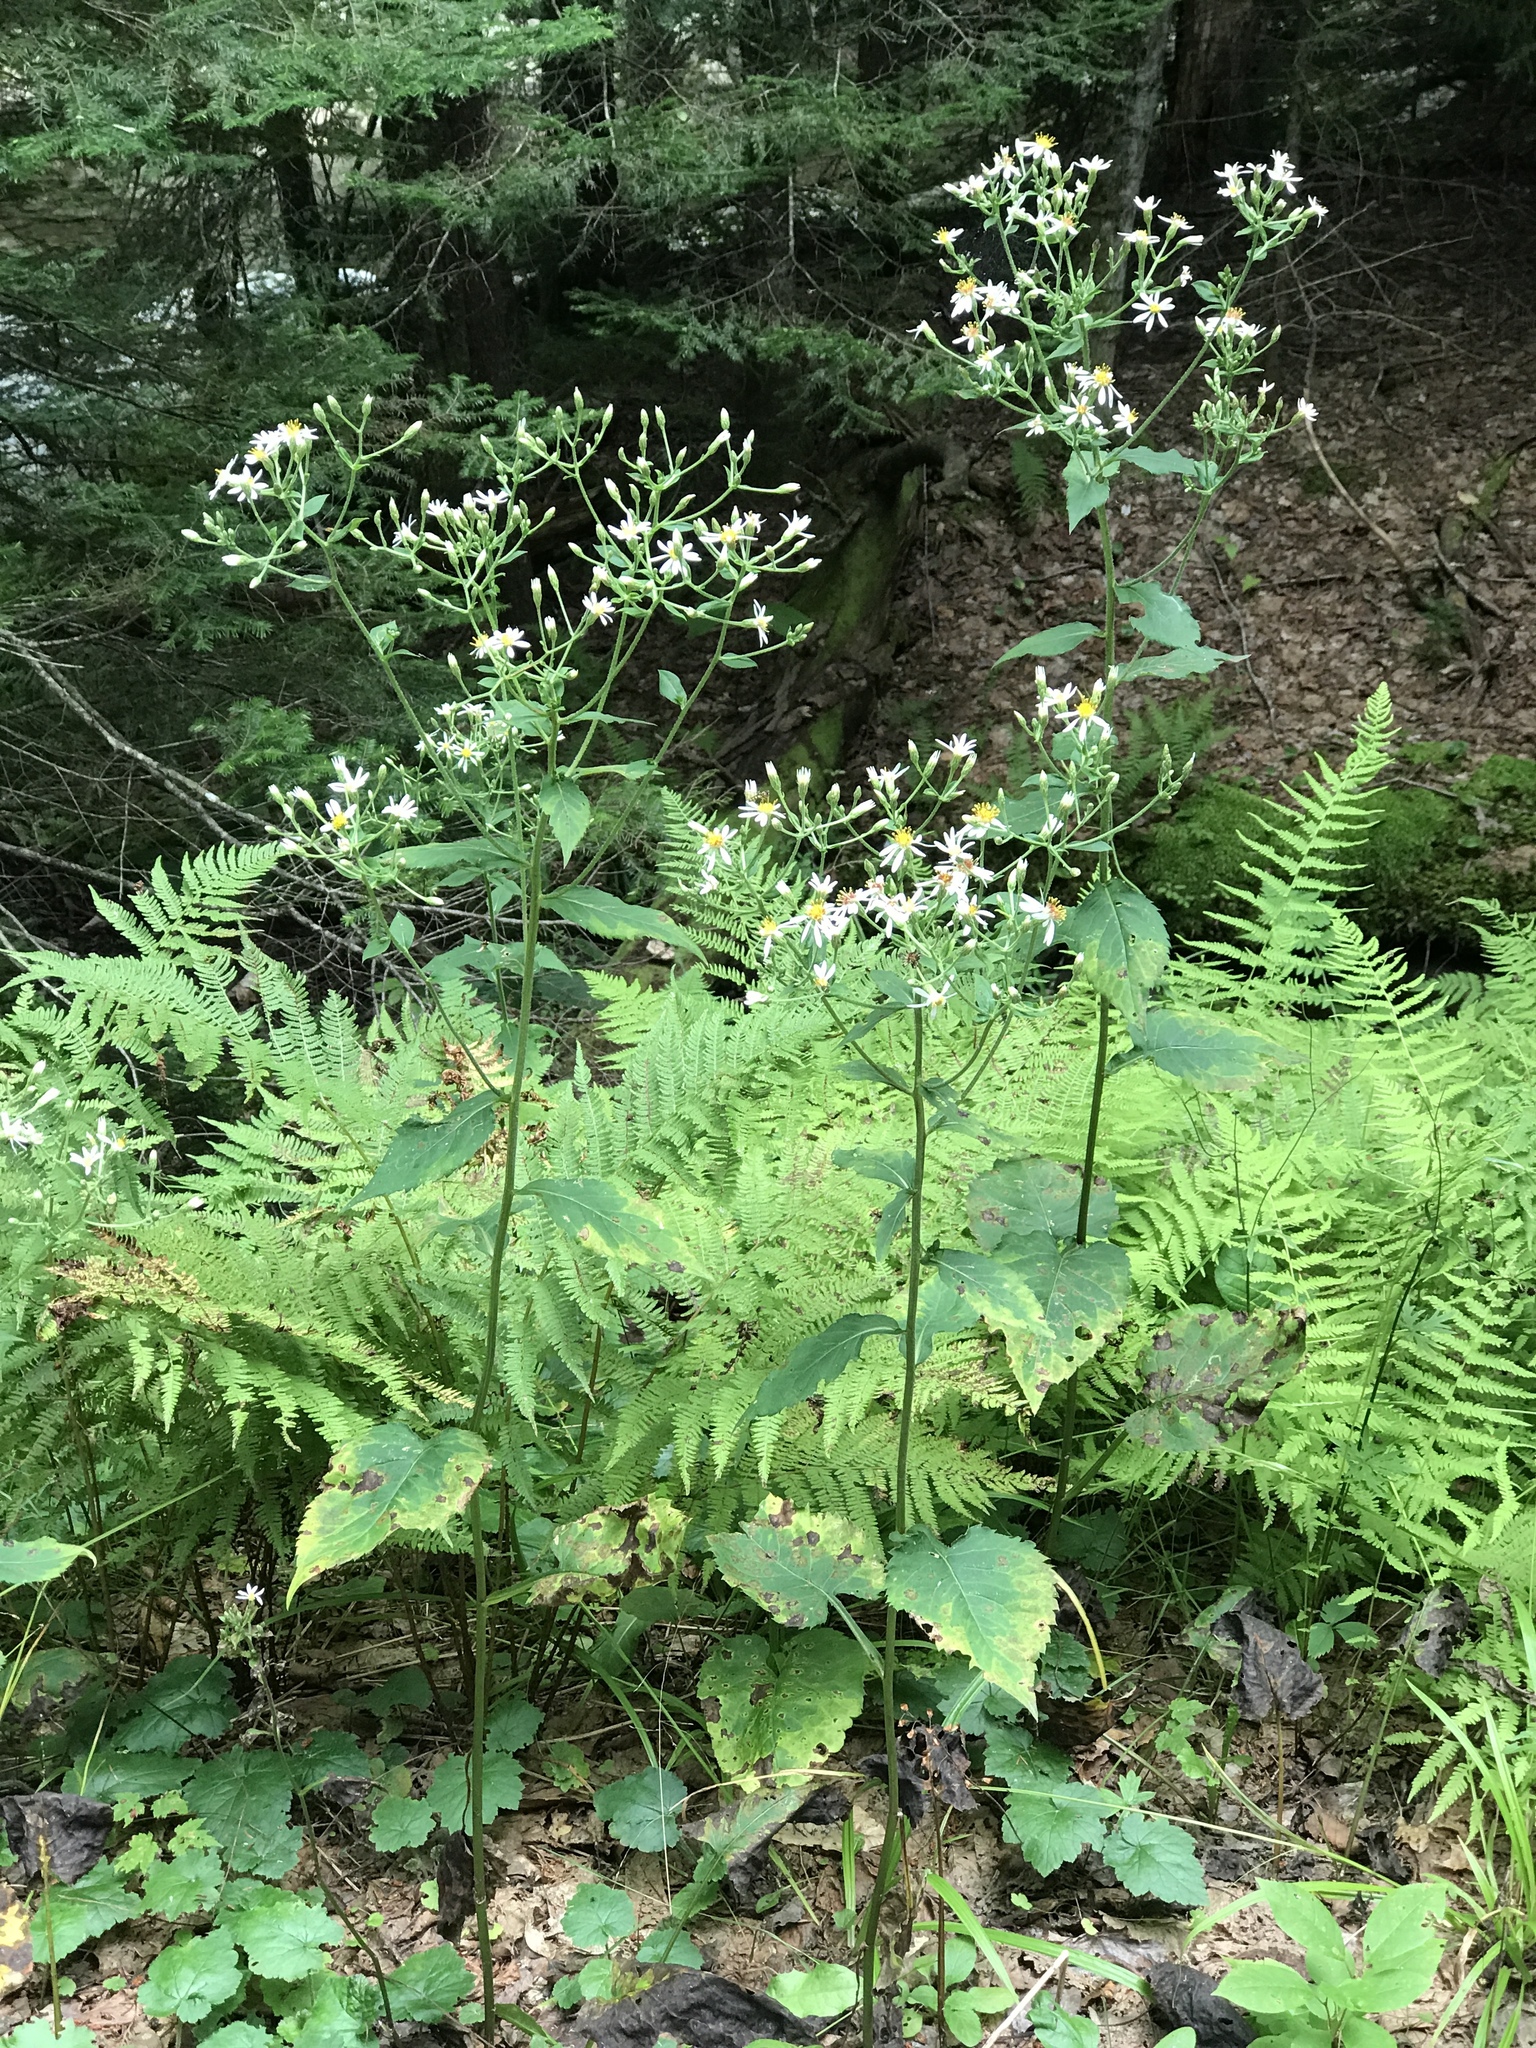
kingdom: Plantae
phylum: Tracheophyta
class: Magnoliopsida
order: Asterales
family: Asteraceae
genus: Eurybia
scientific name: Eurybia macrophylla
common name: Big-leaved aster
